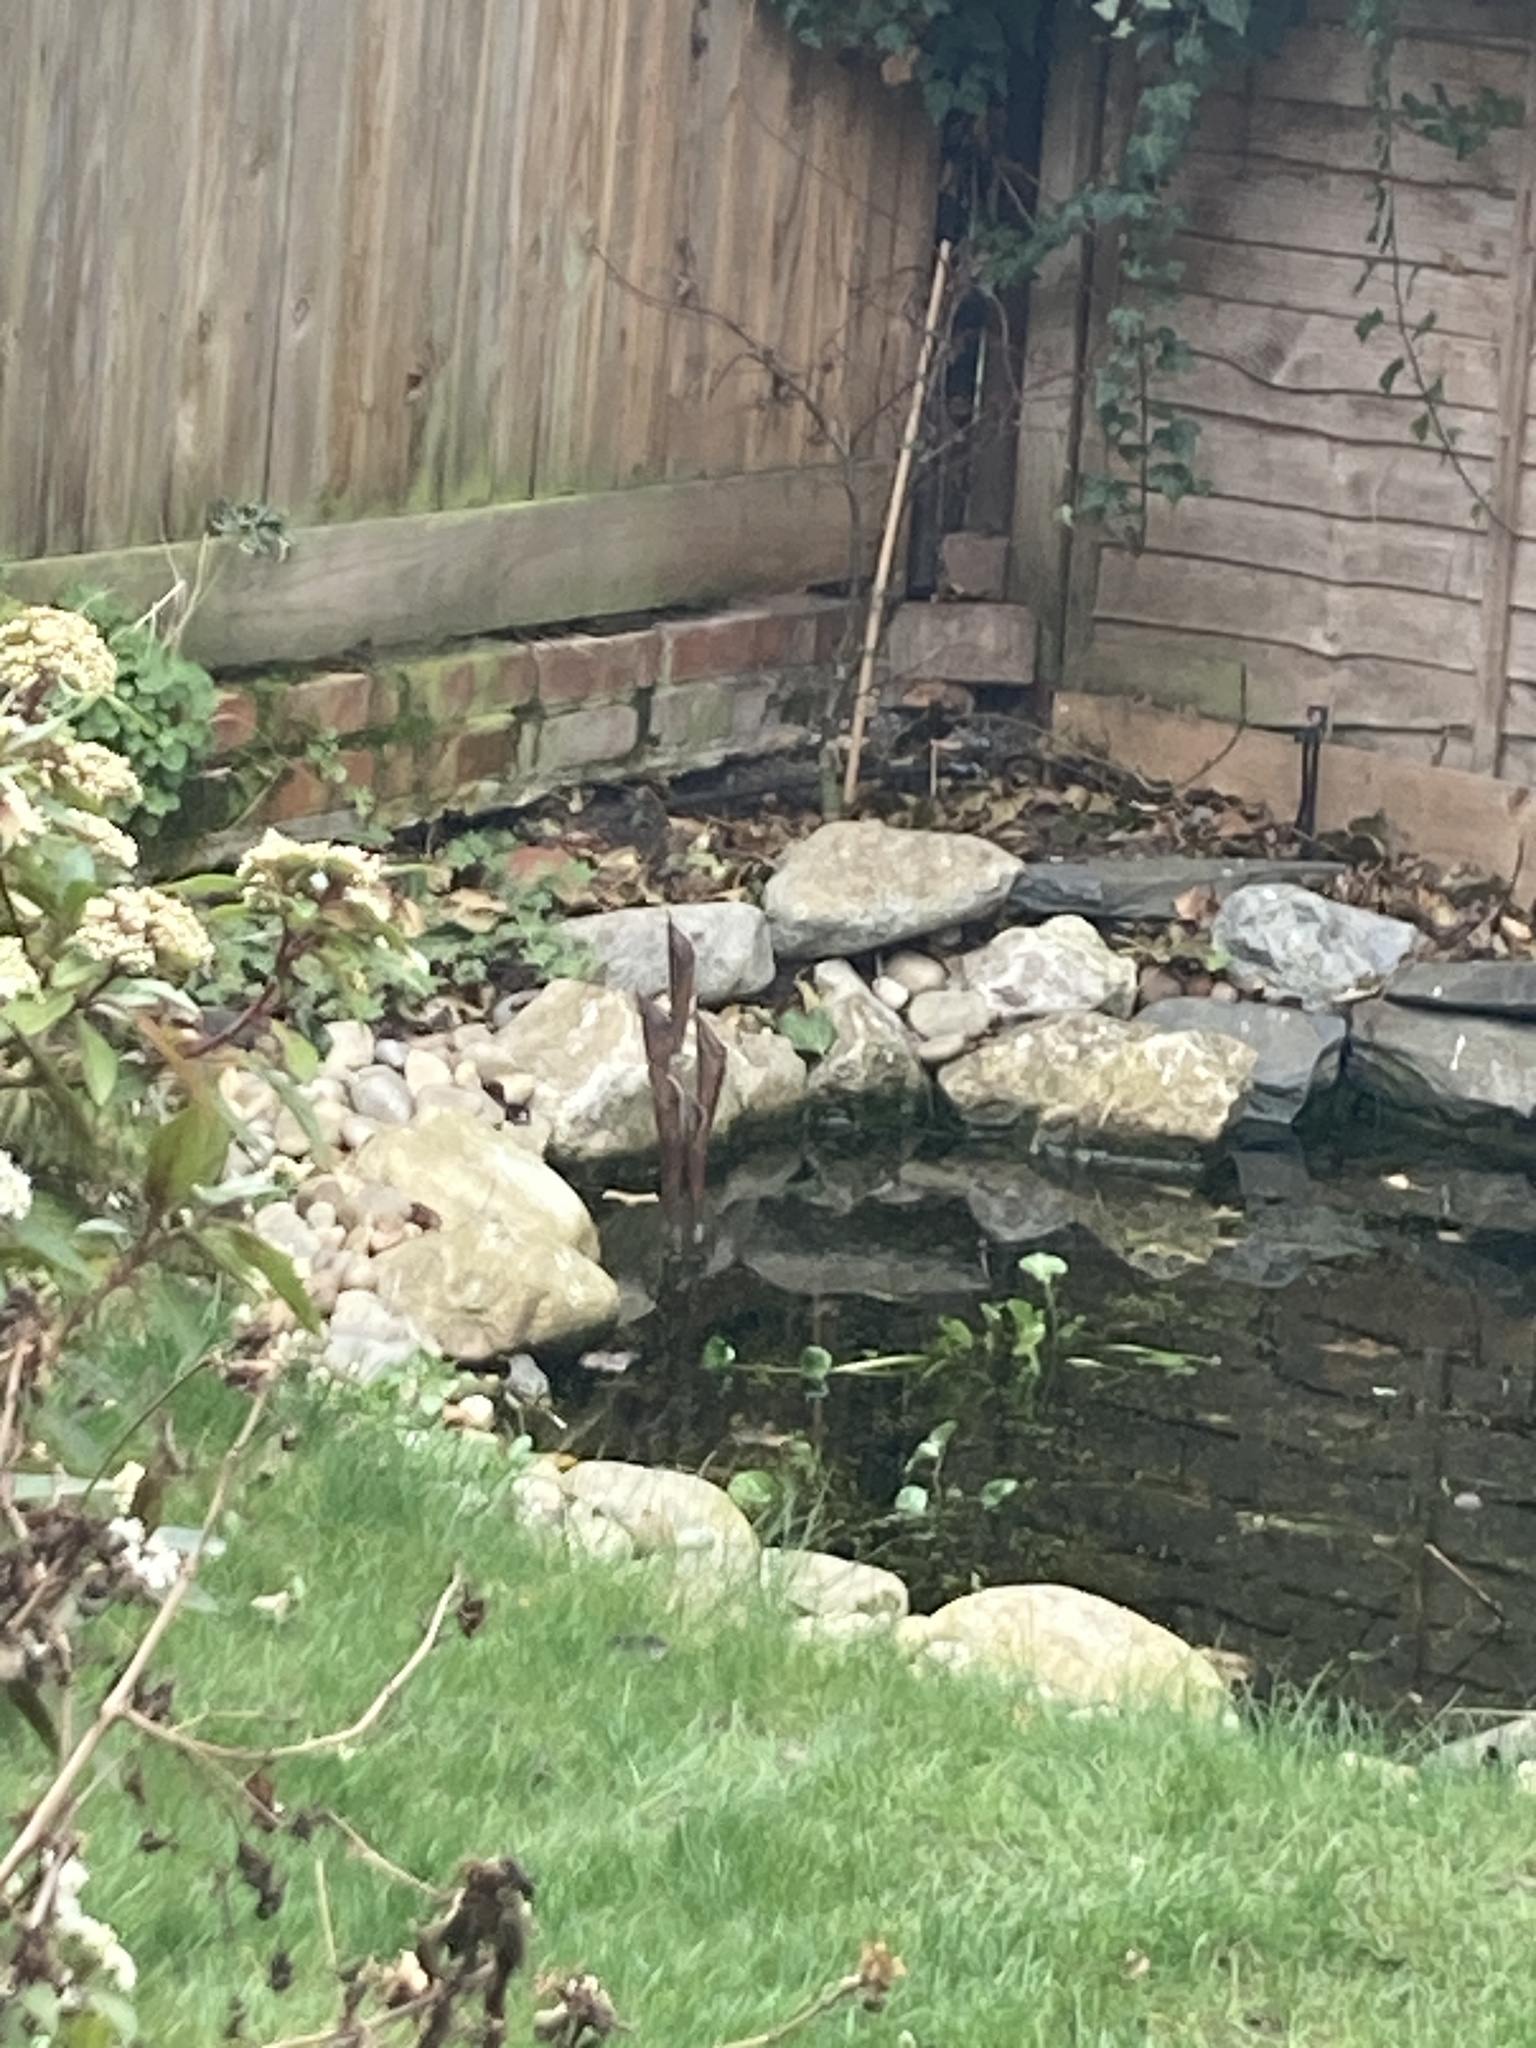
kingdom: Animalia
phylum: Chordata
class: Aves
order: Passeriformes
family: Motacillidae
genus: Motacilla
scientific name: Motacilla cinerea
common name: Grey wagtail
